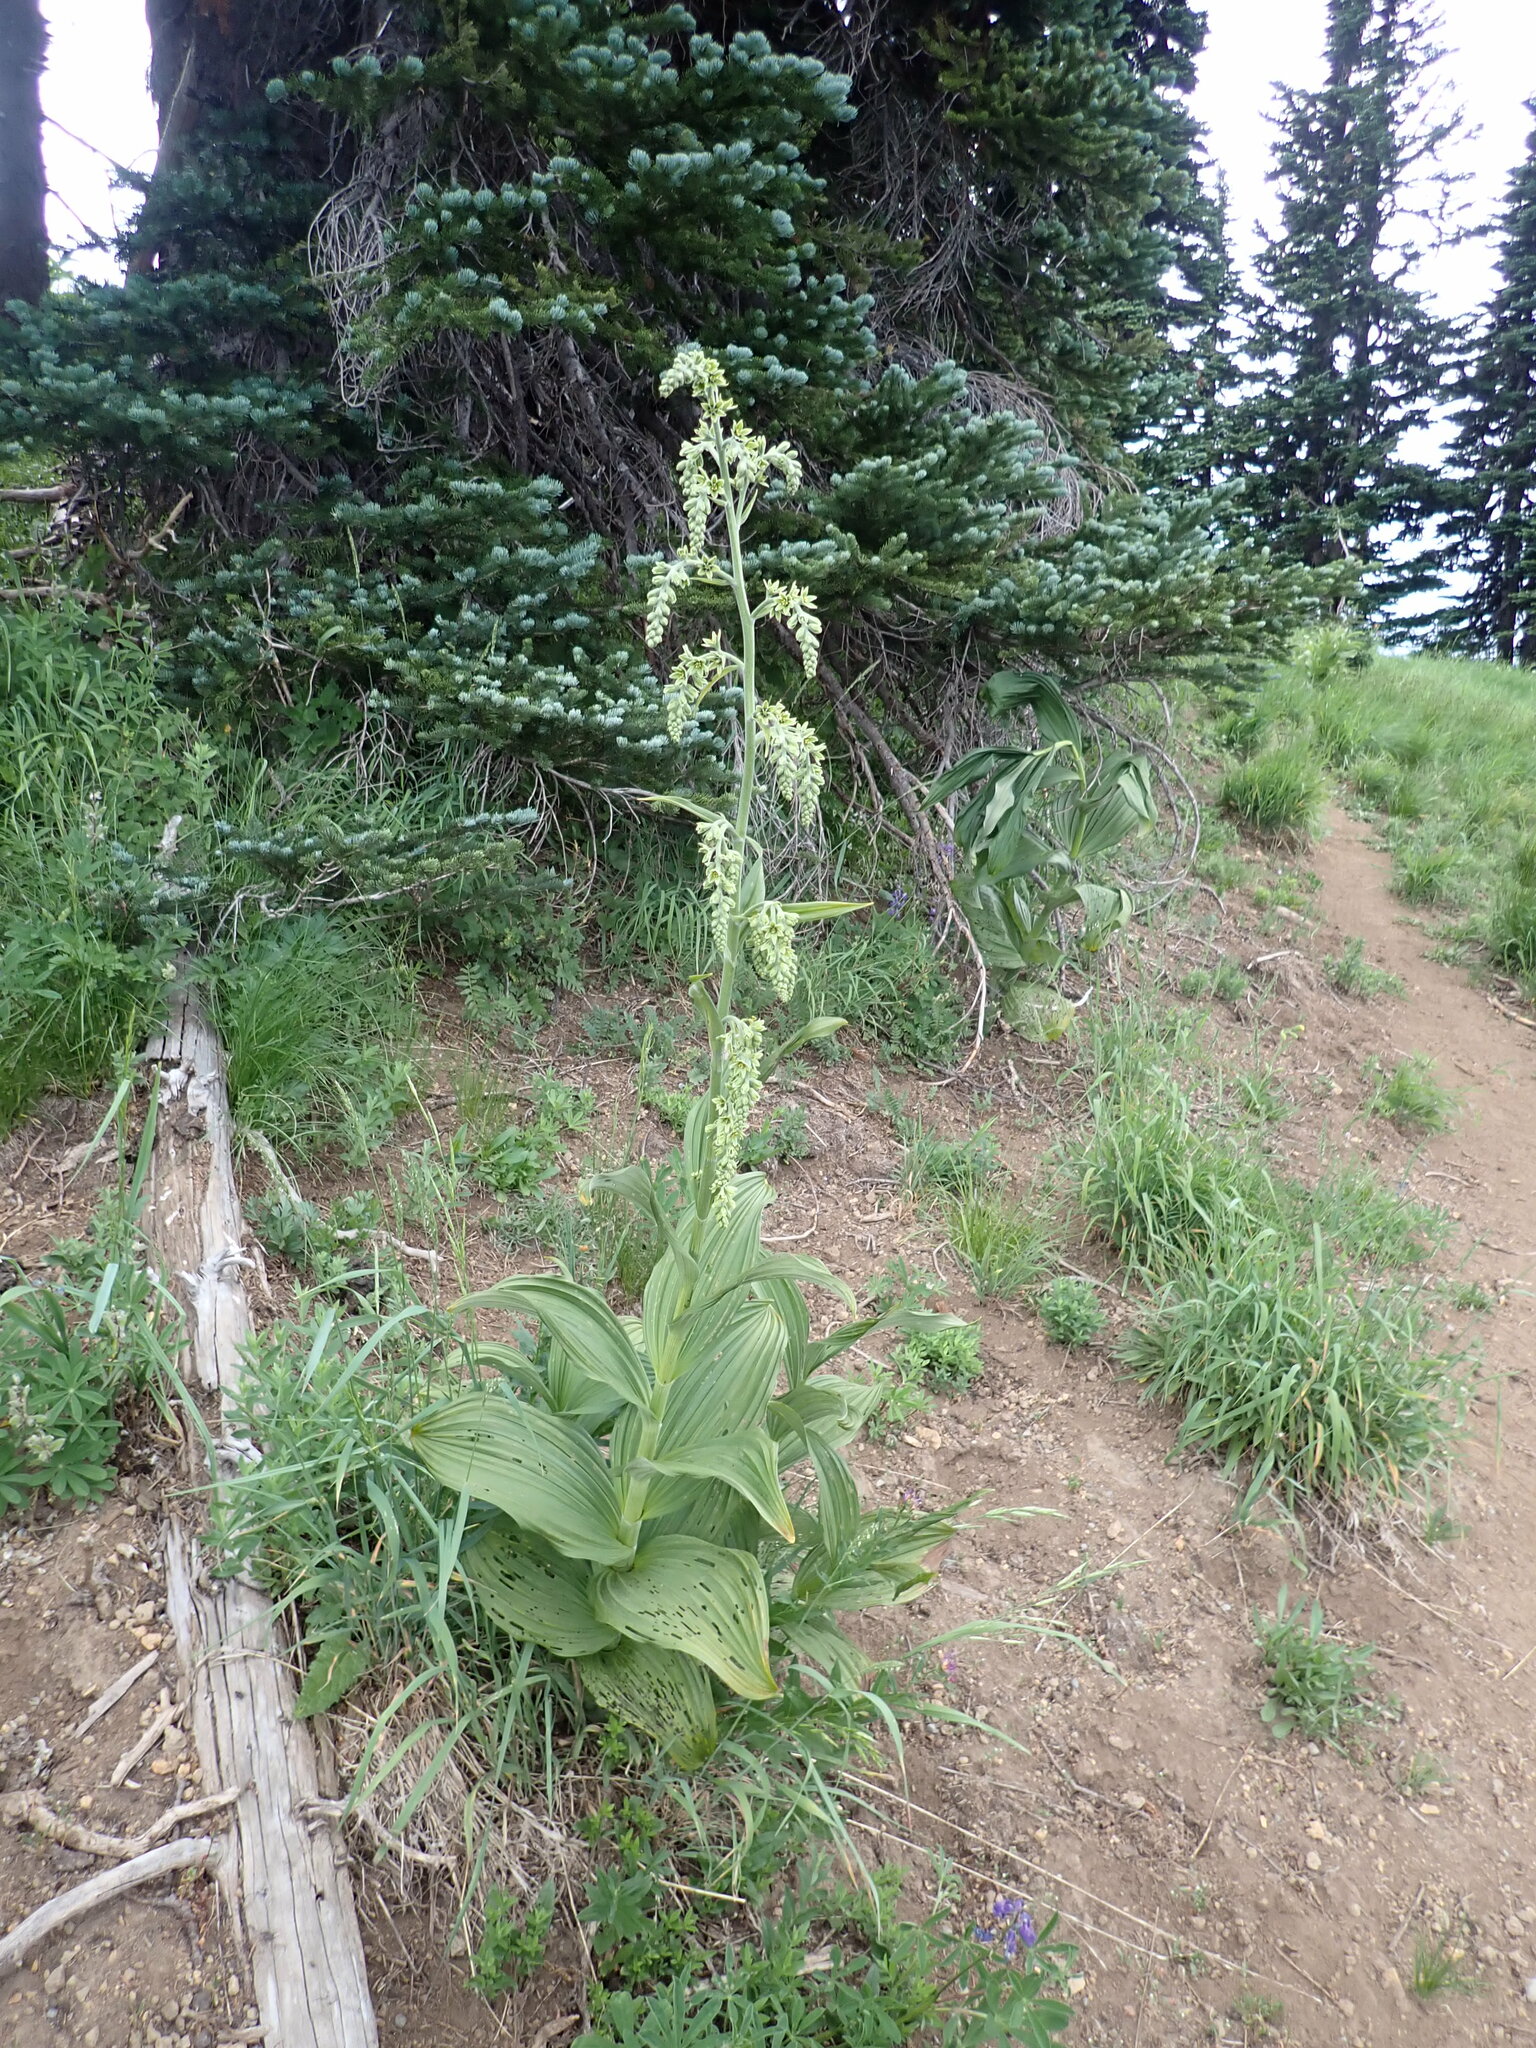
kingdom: Plantae
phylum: Tracheophyta
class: Liliopsida
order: Liliales
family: Melanthiaceae
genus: Veratrum
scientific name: Veratrum viride
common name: American false hellebore
